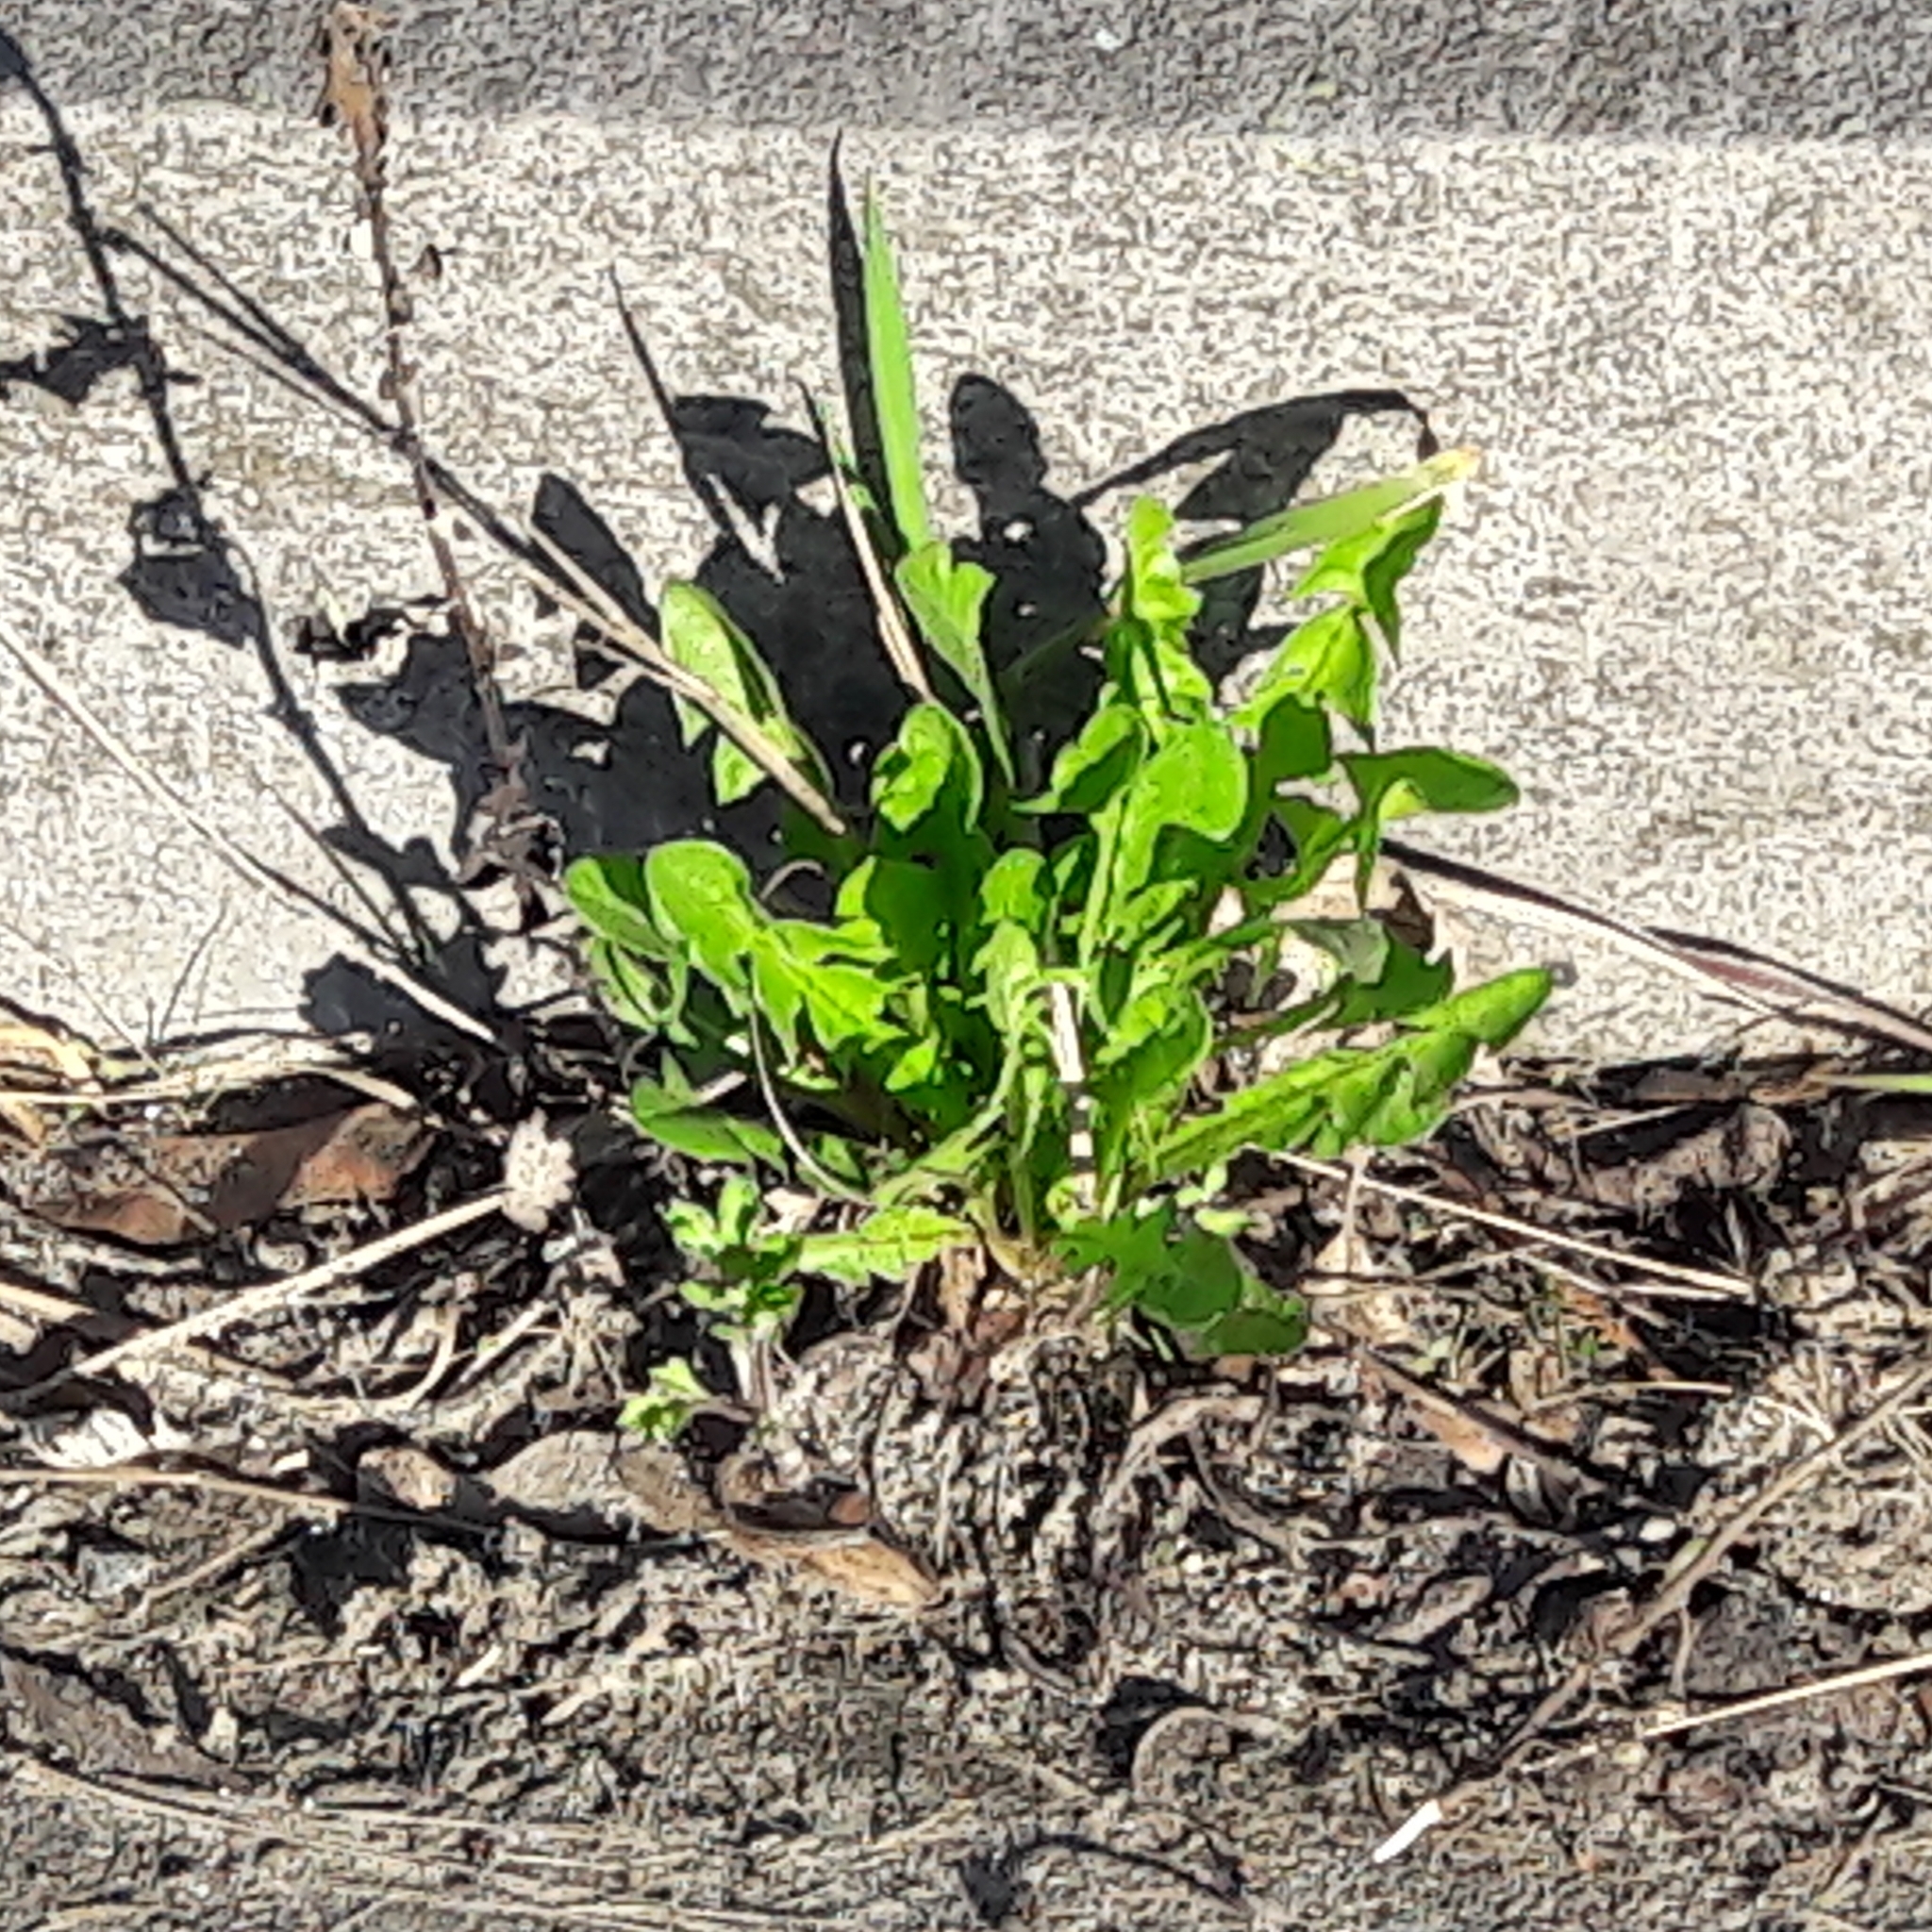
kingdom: Plantae
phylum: Tracheophyta
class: Magnoliopsida
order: Asterales
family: Asteraceae
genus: Taraxacum
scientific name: Taraxacum officinale
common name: Common dandelion
